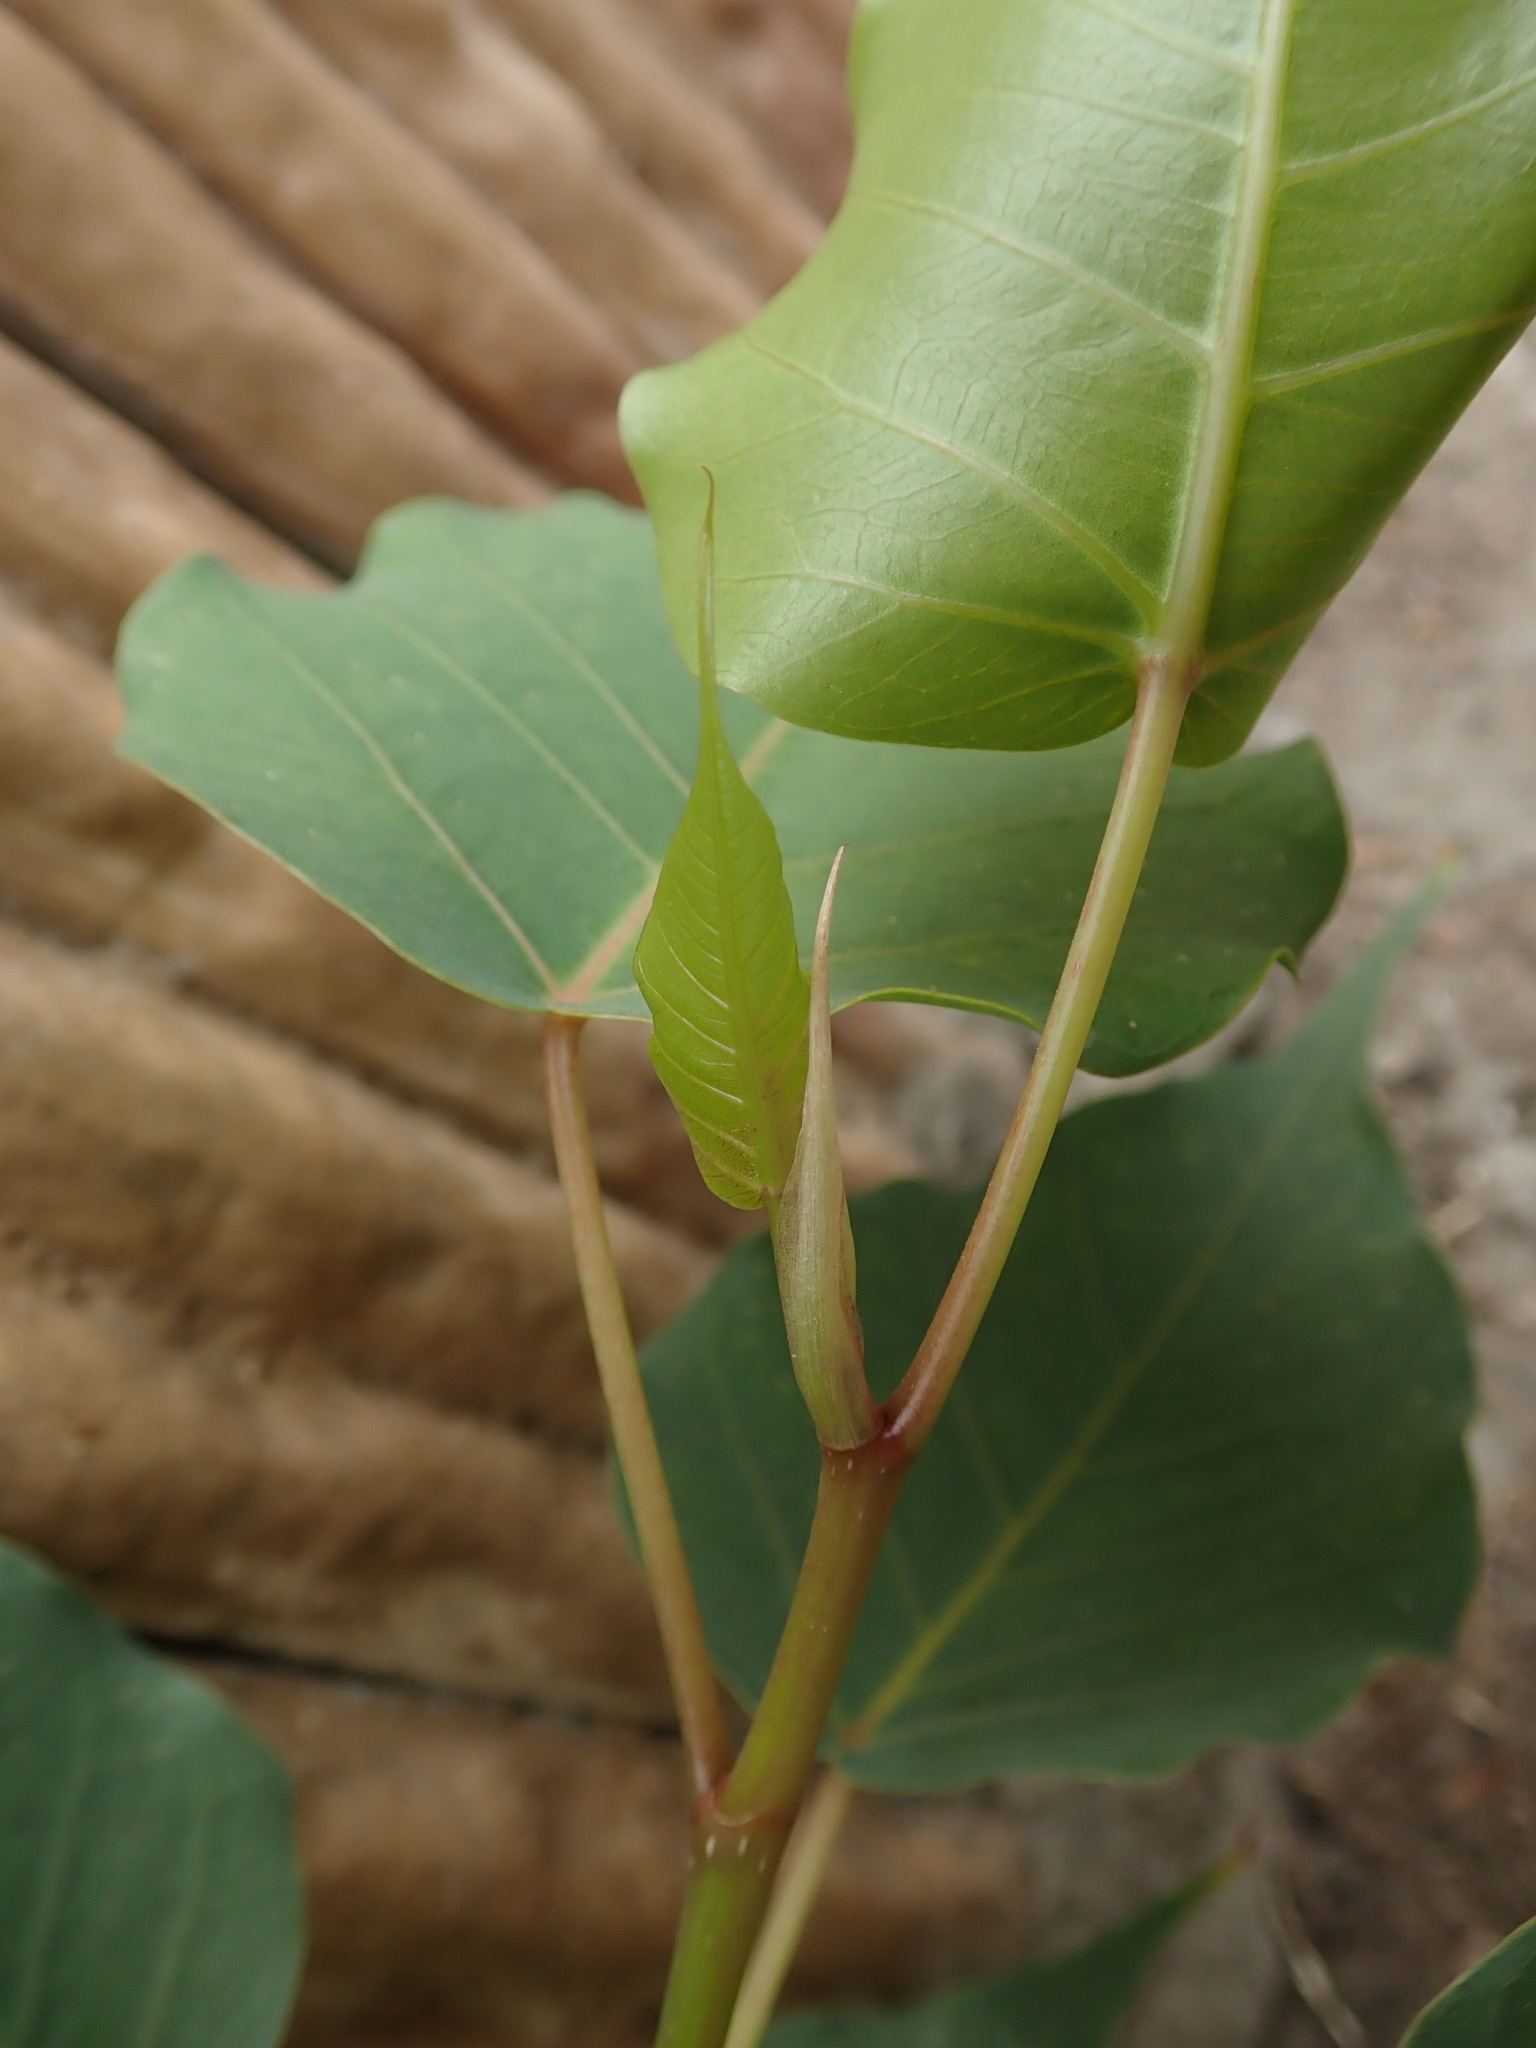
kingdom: Plantae
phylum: Tracheophyta
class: Magnoliopsida
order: Rosales
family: Moraceae
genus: Ficus
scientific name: Ficus religiosa
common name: Bodhi tree
